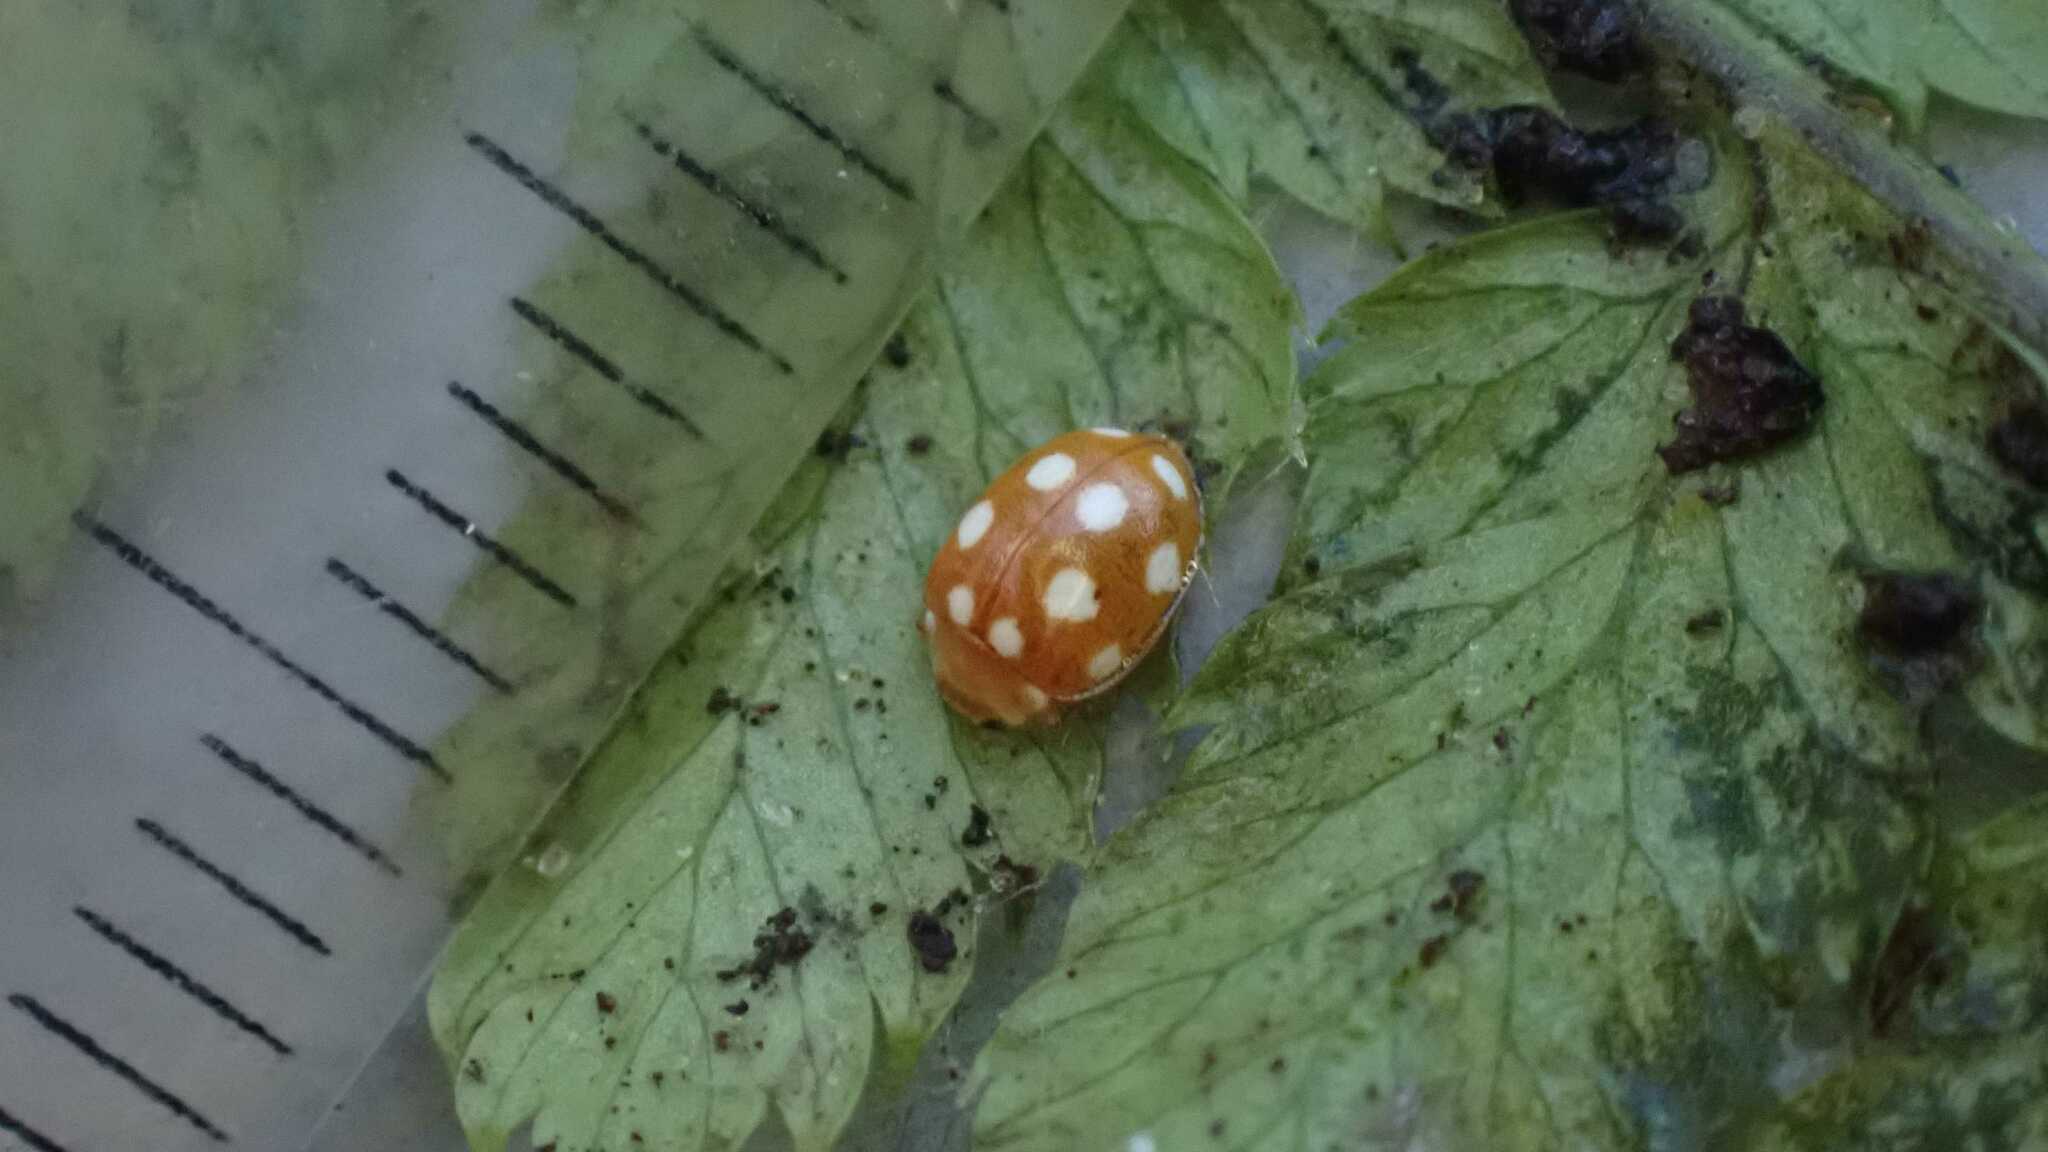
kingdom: Animalia
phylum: Arthropoda
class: Insecta
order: Coleoptera
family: Coccinellidae
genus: Vibidia
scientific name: Vibidia duodecimguttata
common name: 12-spot ladybird
